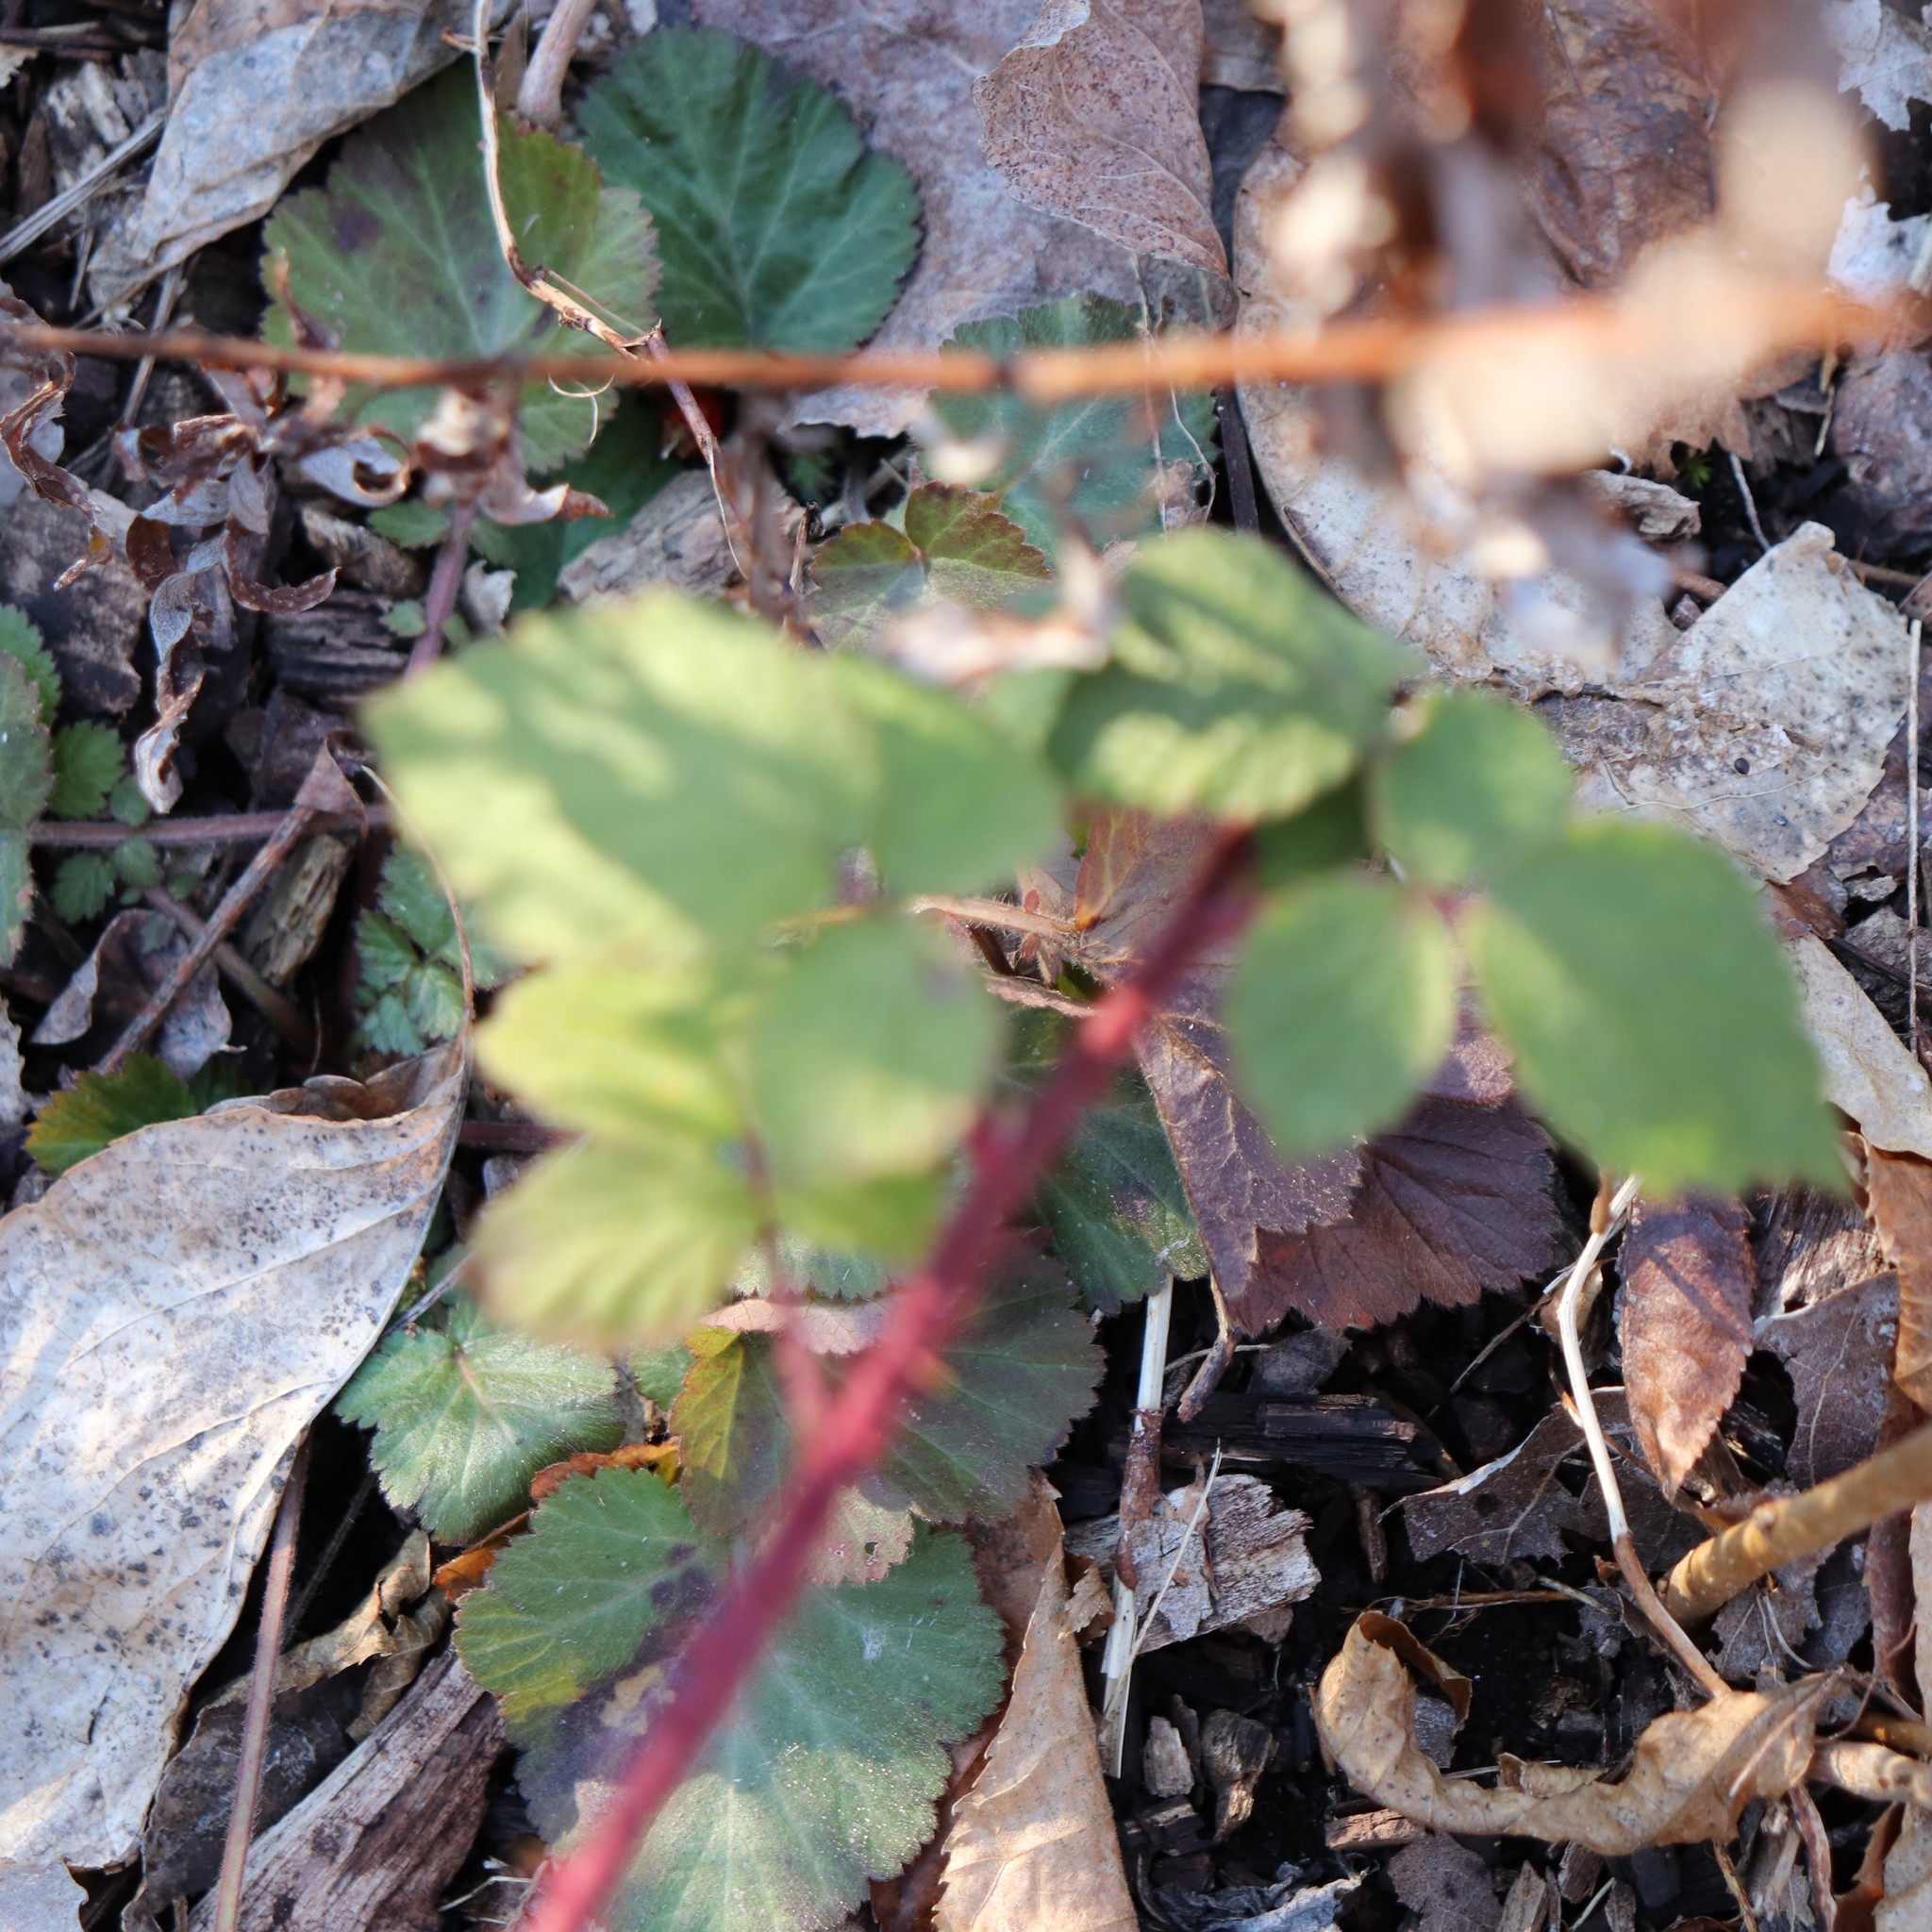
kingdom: Plantae
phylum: Tracheophyta
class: Magnoliopsida
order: Rosales
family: Rosaceae
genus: Rubus
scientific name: Rubus phoenicolasius
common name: Japanese wineberry
